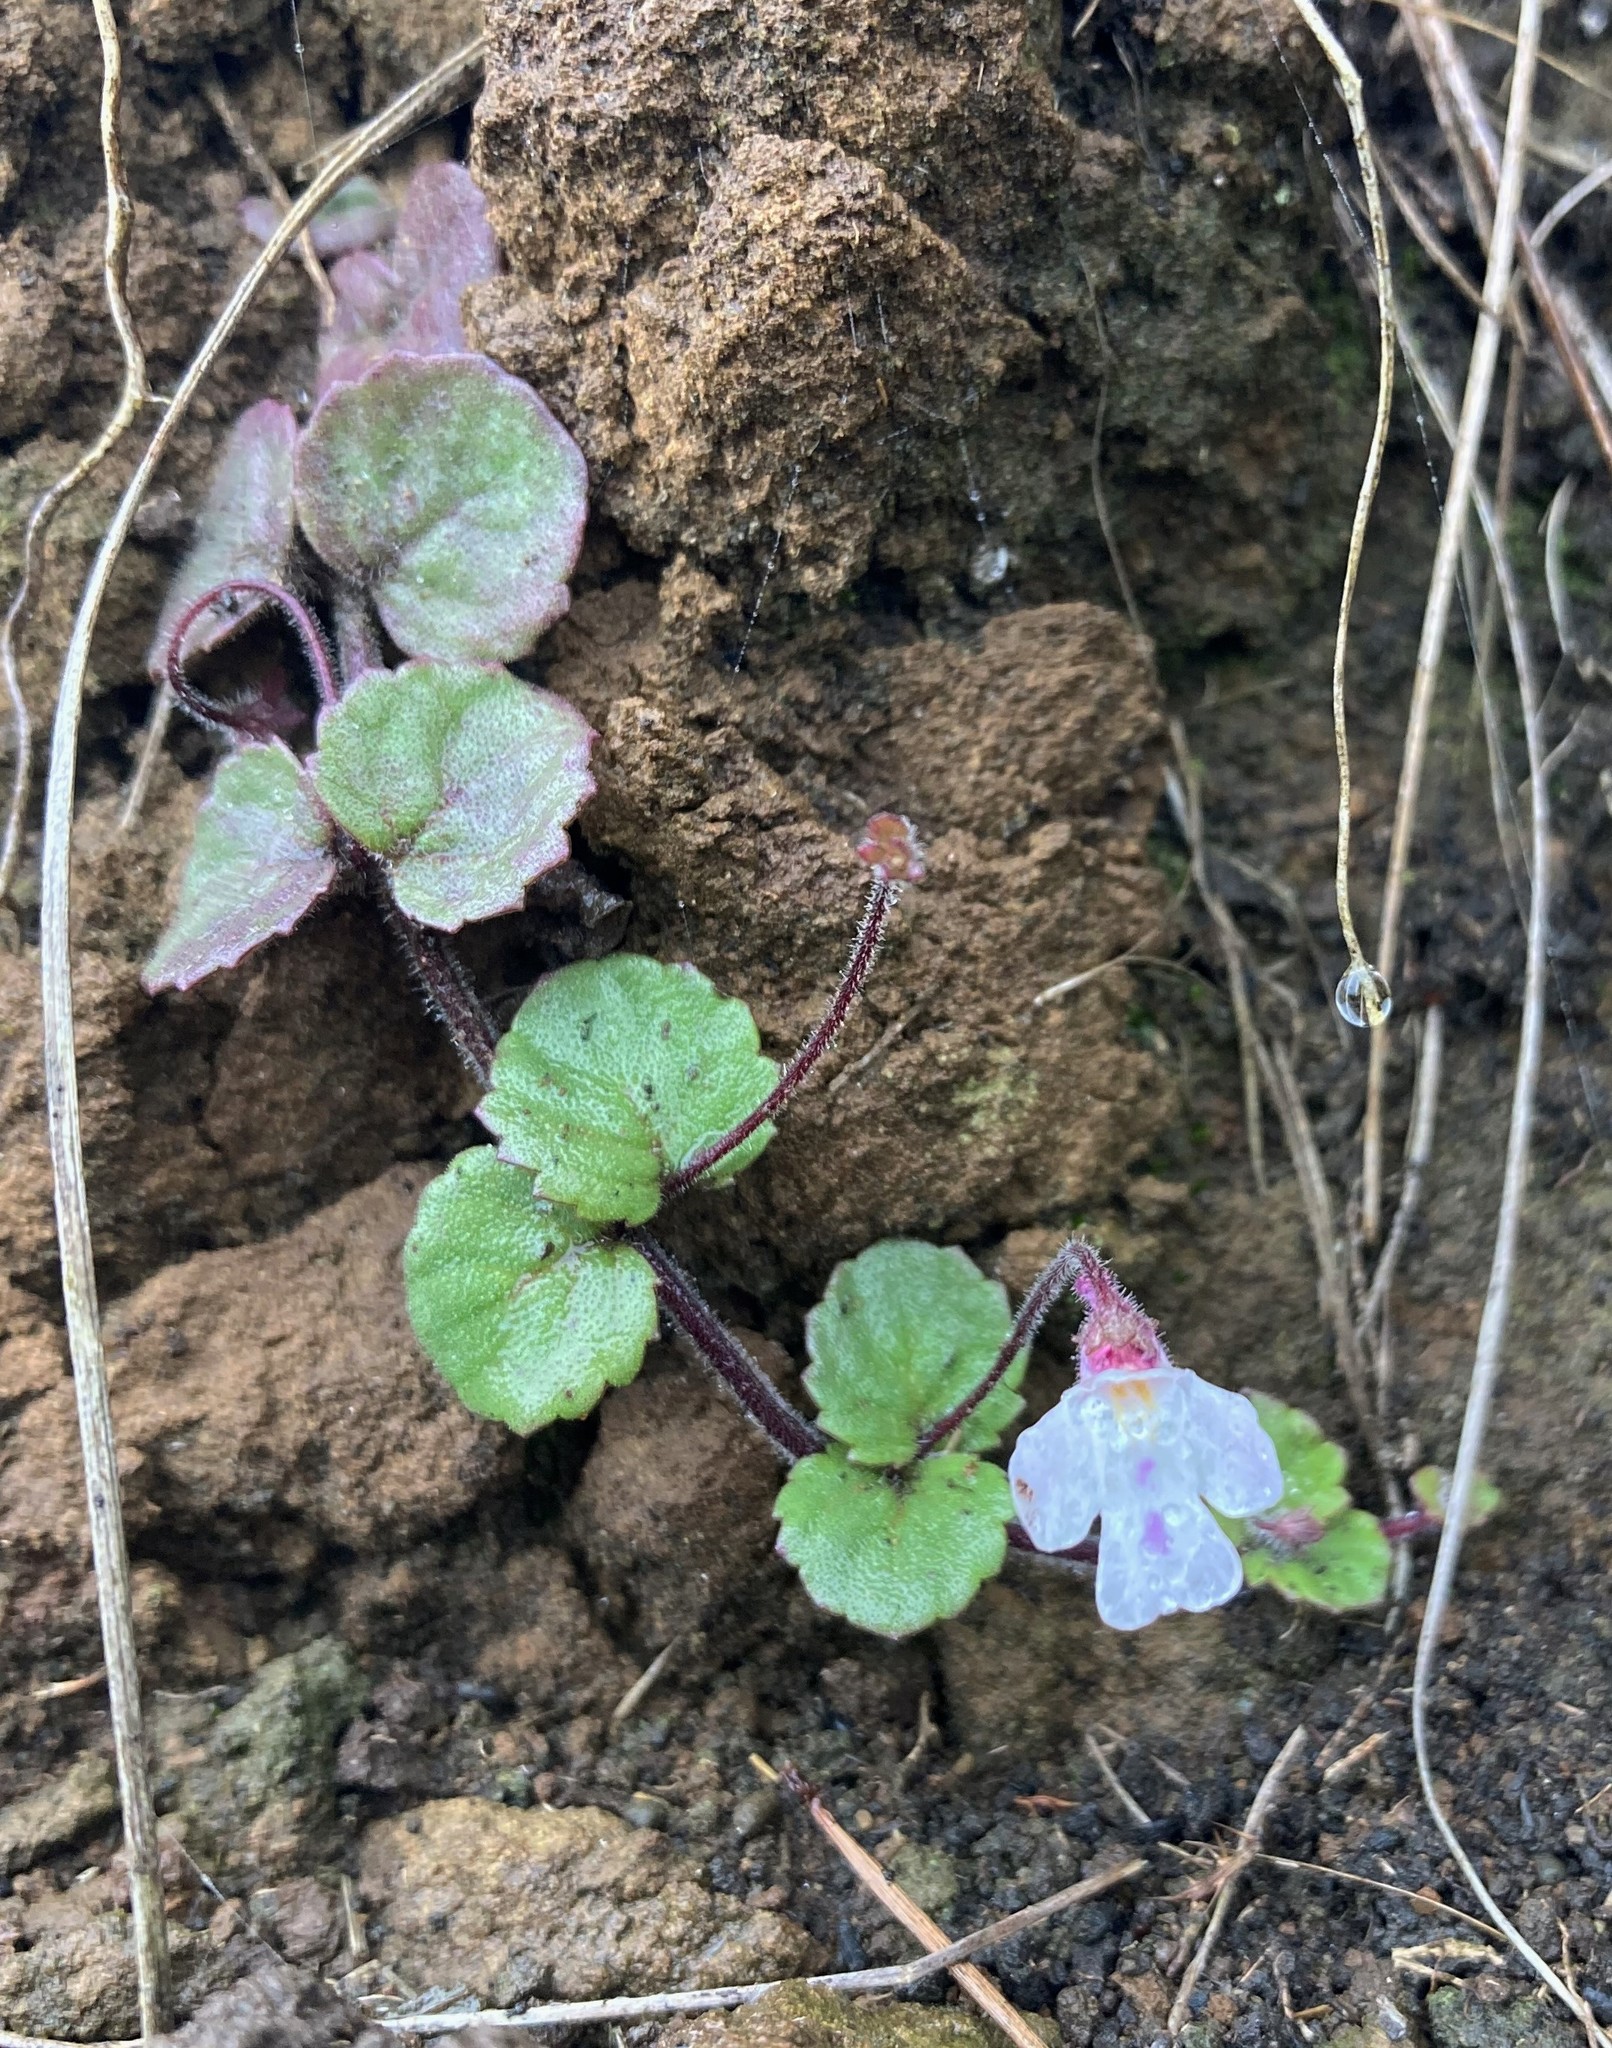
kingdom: Plantae
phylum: Tracheophyta
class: Magnoliopsida
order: Lamiales
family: Scrophulariaceae
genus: Diclis
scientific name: Diclis reptans
